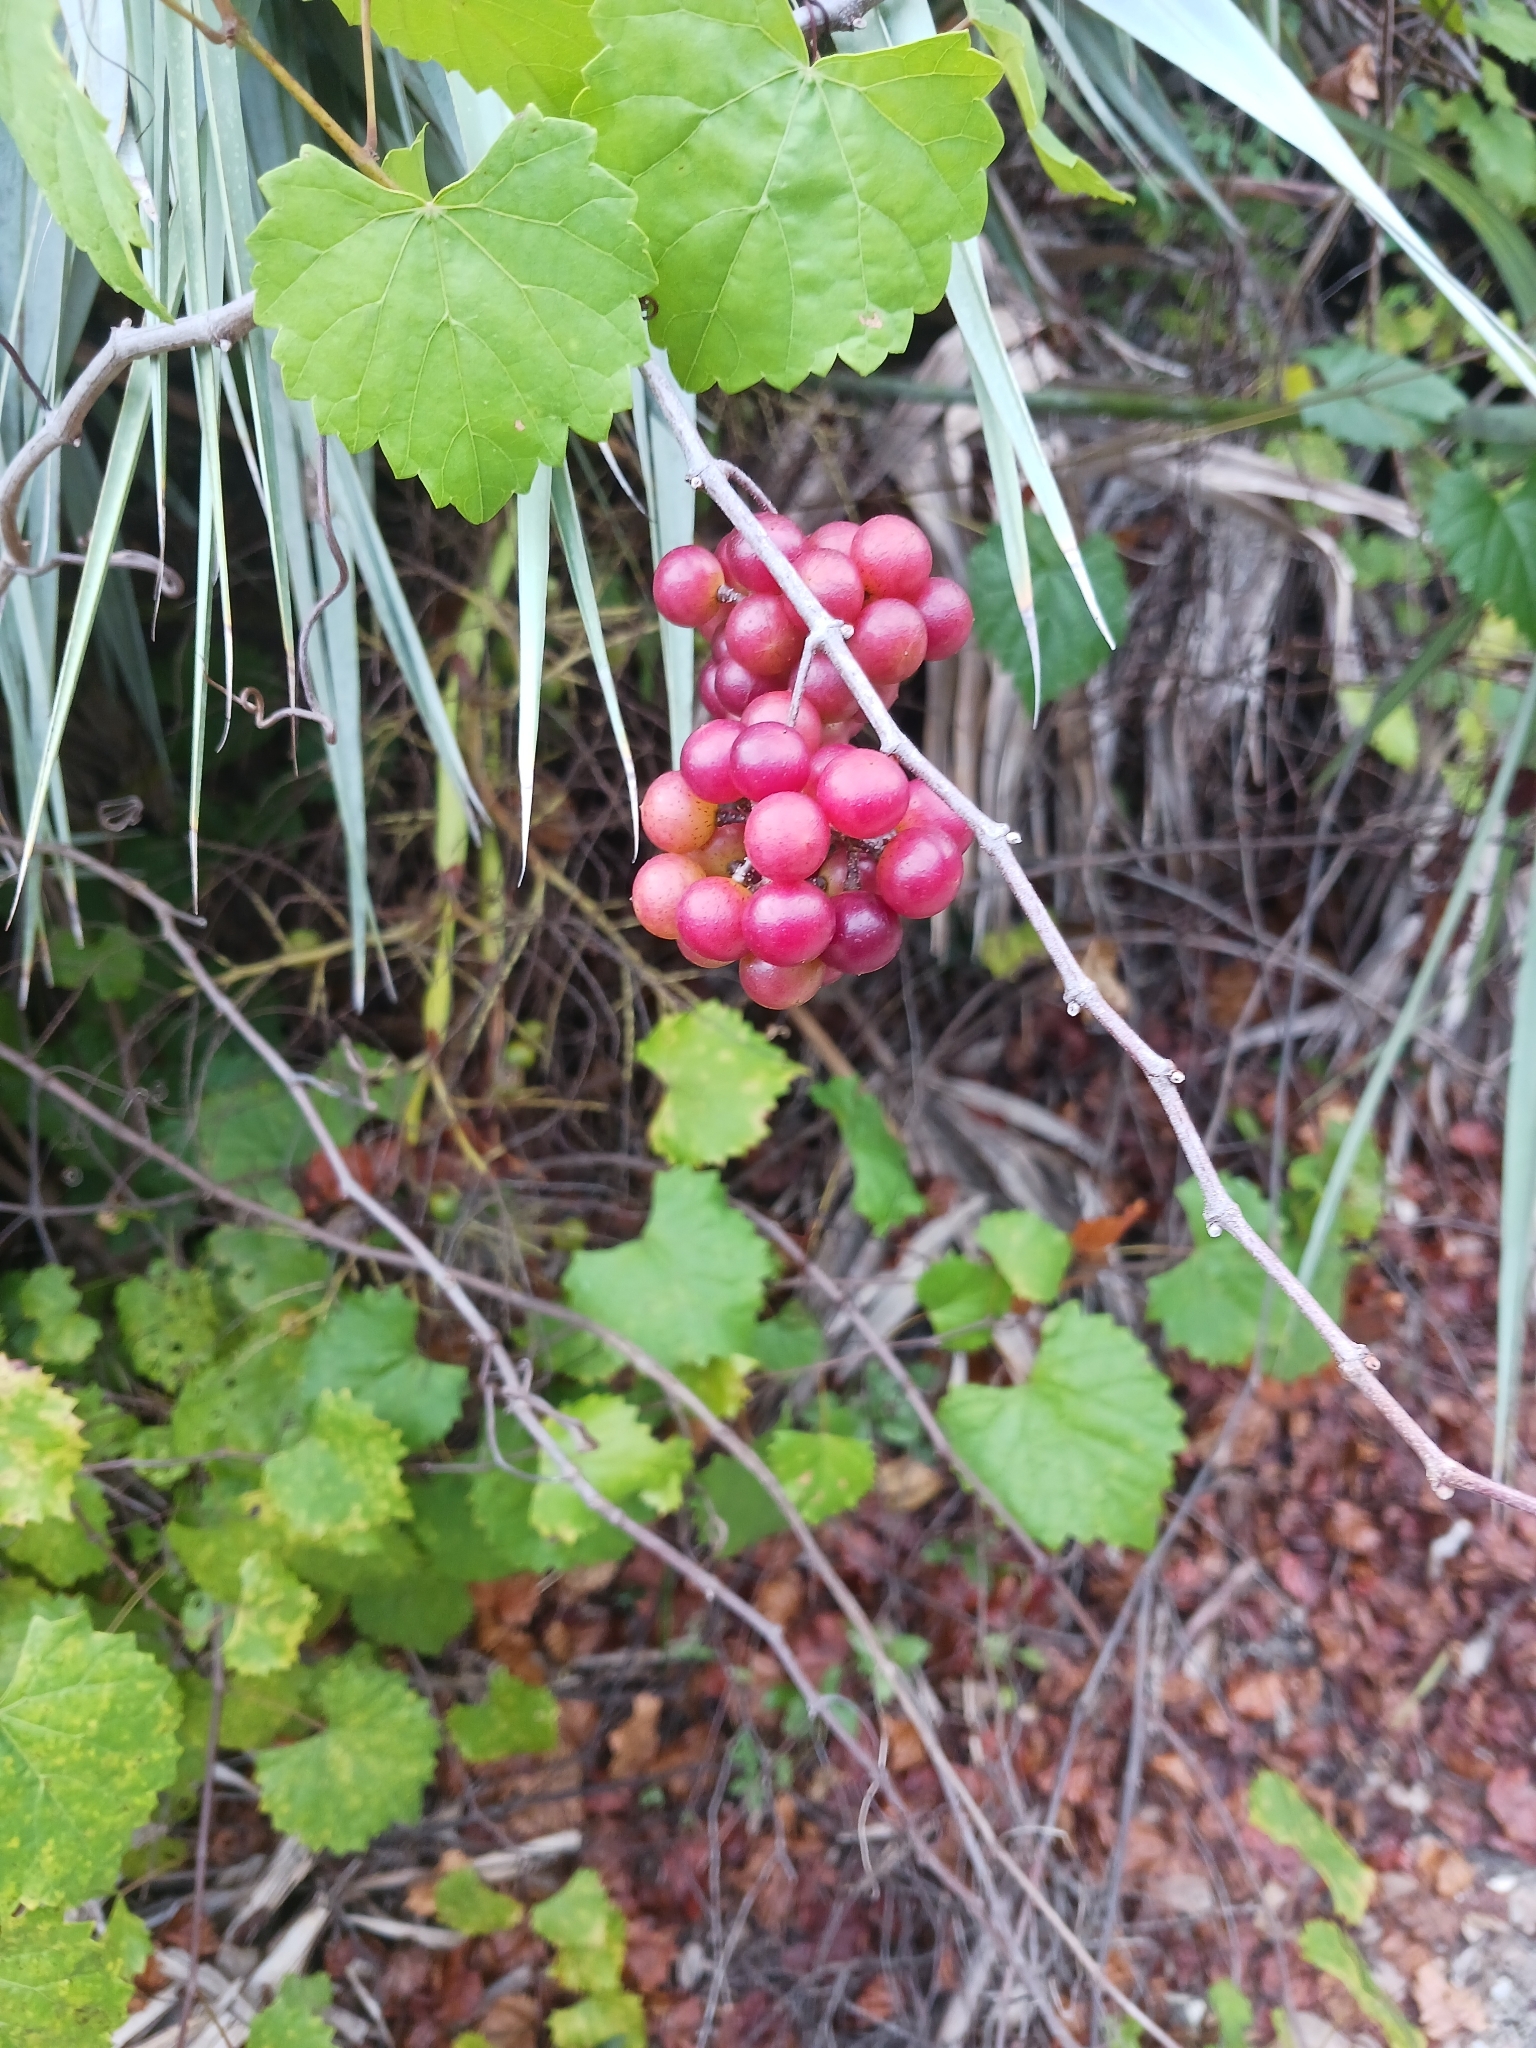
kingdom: Plantae
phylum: Tracheophyta
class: Magnoliopsida
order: Vitales
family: Vitaceae
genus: Vitis
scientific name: Vitis rotundifolia
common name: Muscadine grape
